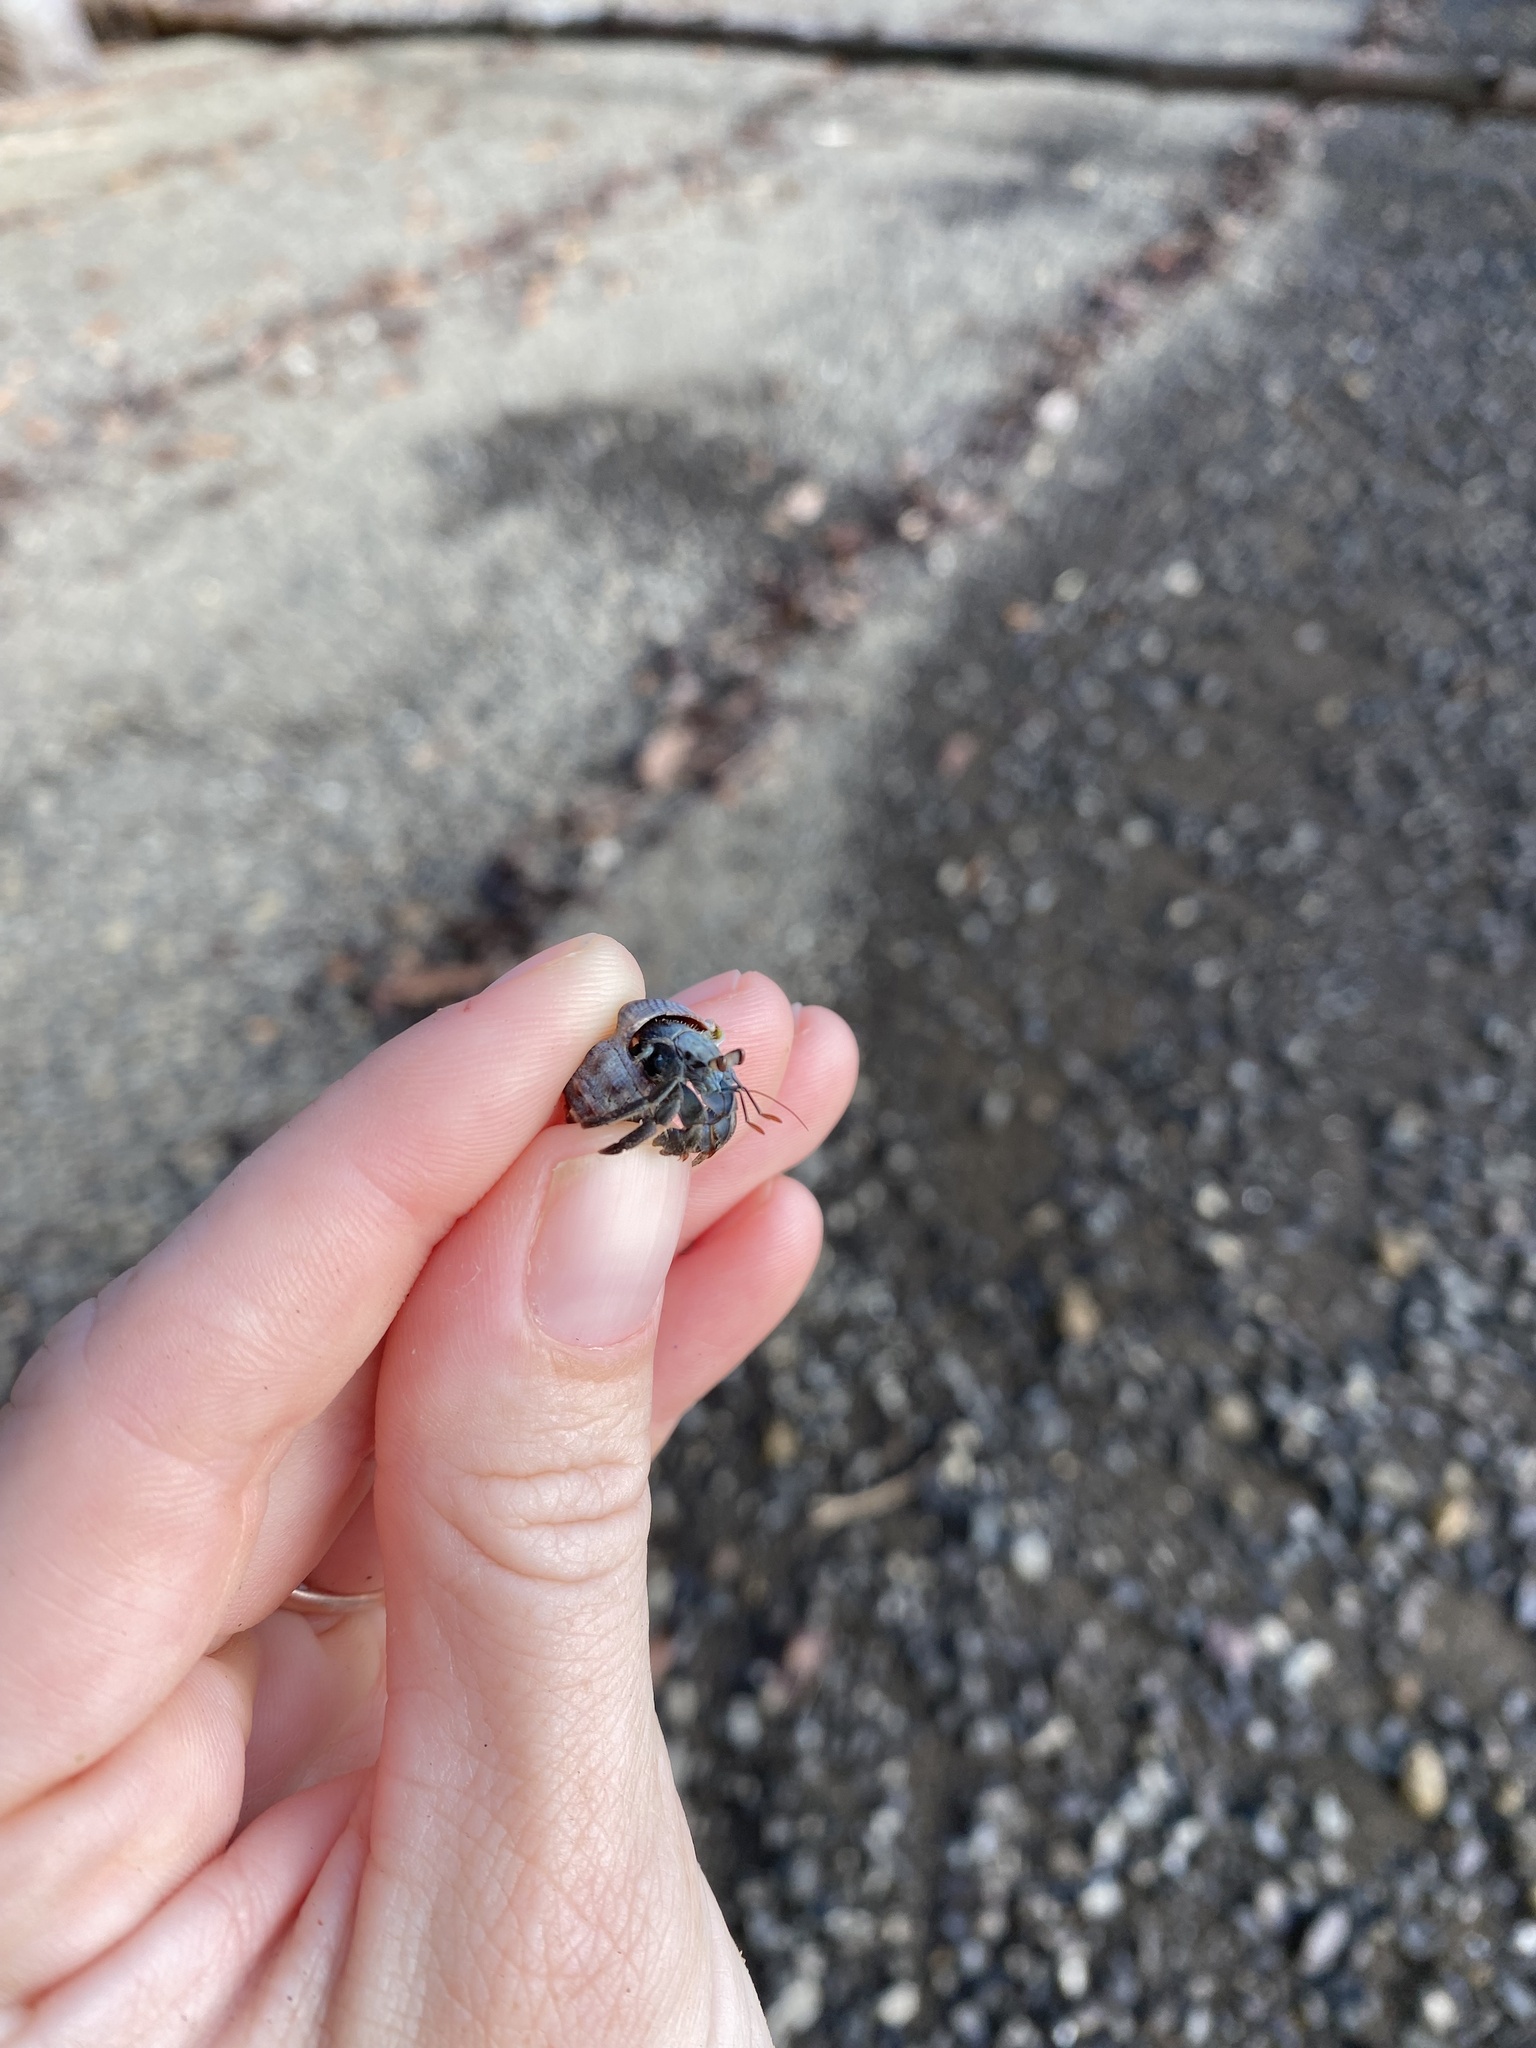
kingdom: Animalia
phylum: Arthropoda
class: Malacostraca
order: Decapoda
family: Coenobitidae
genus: Coenobita
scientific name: Coenobita compressus
